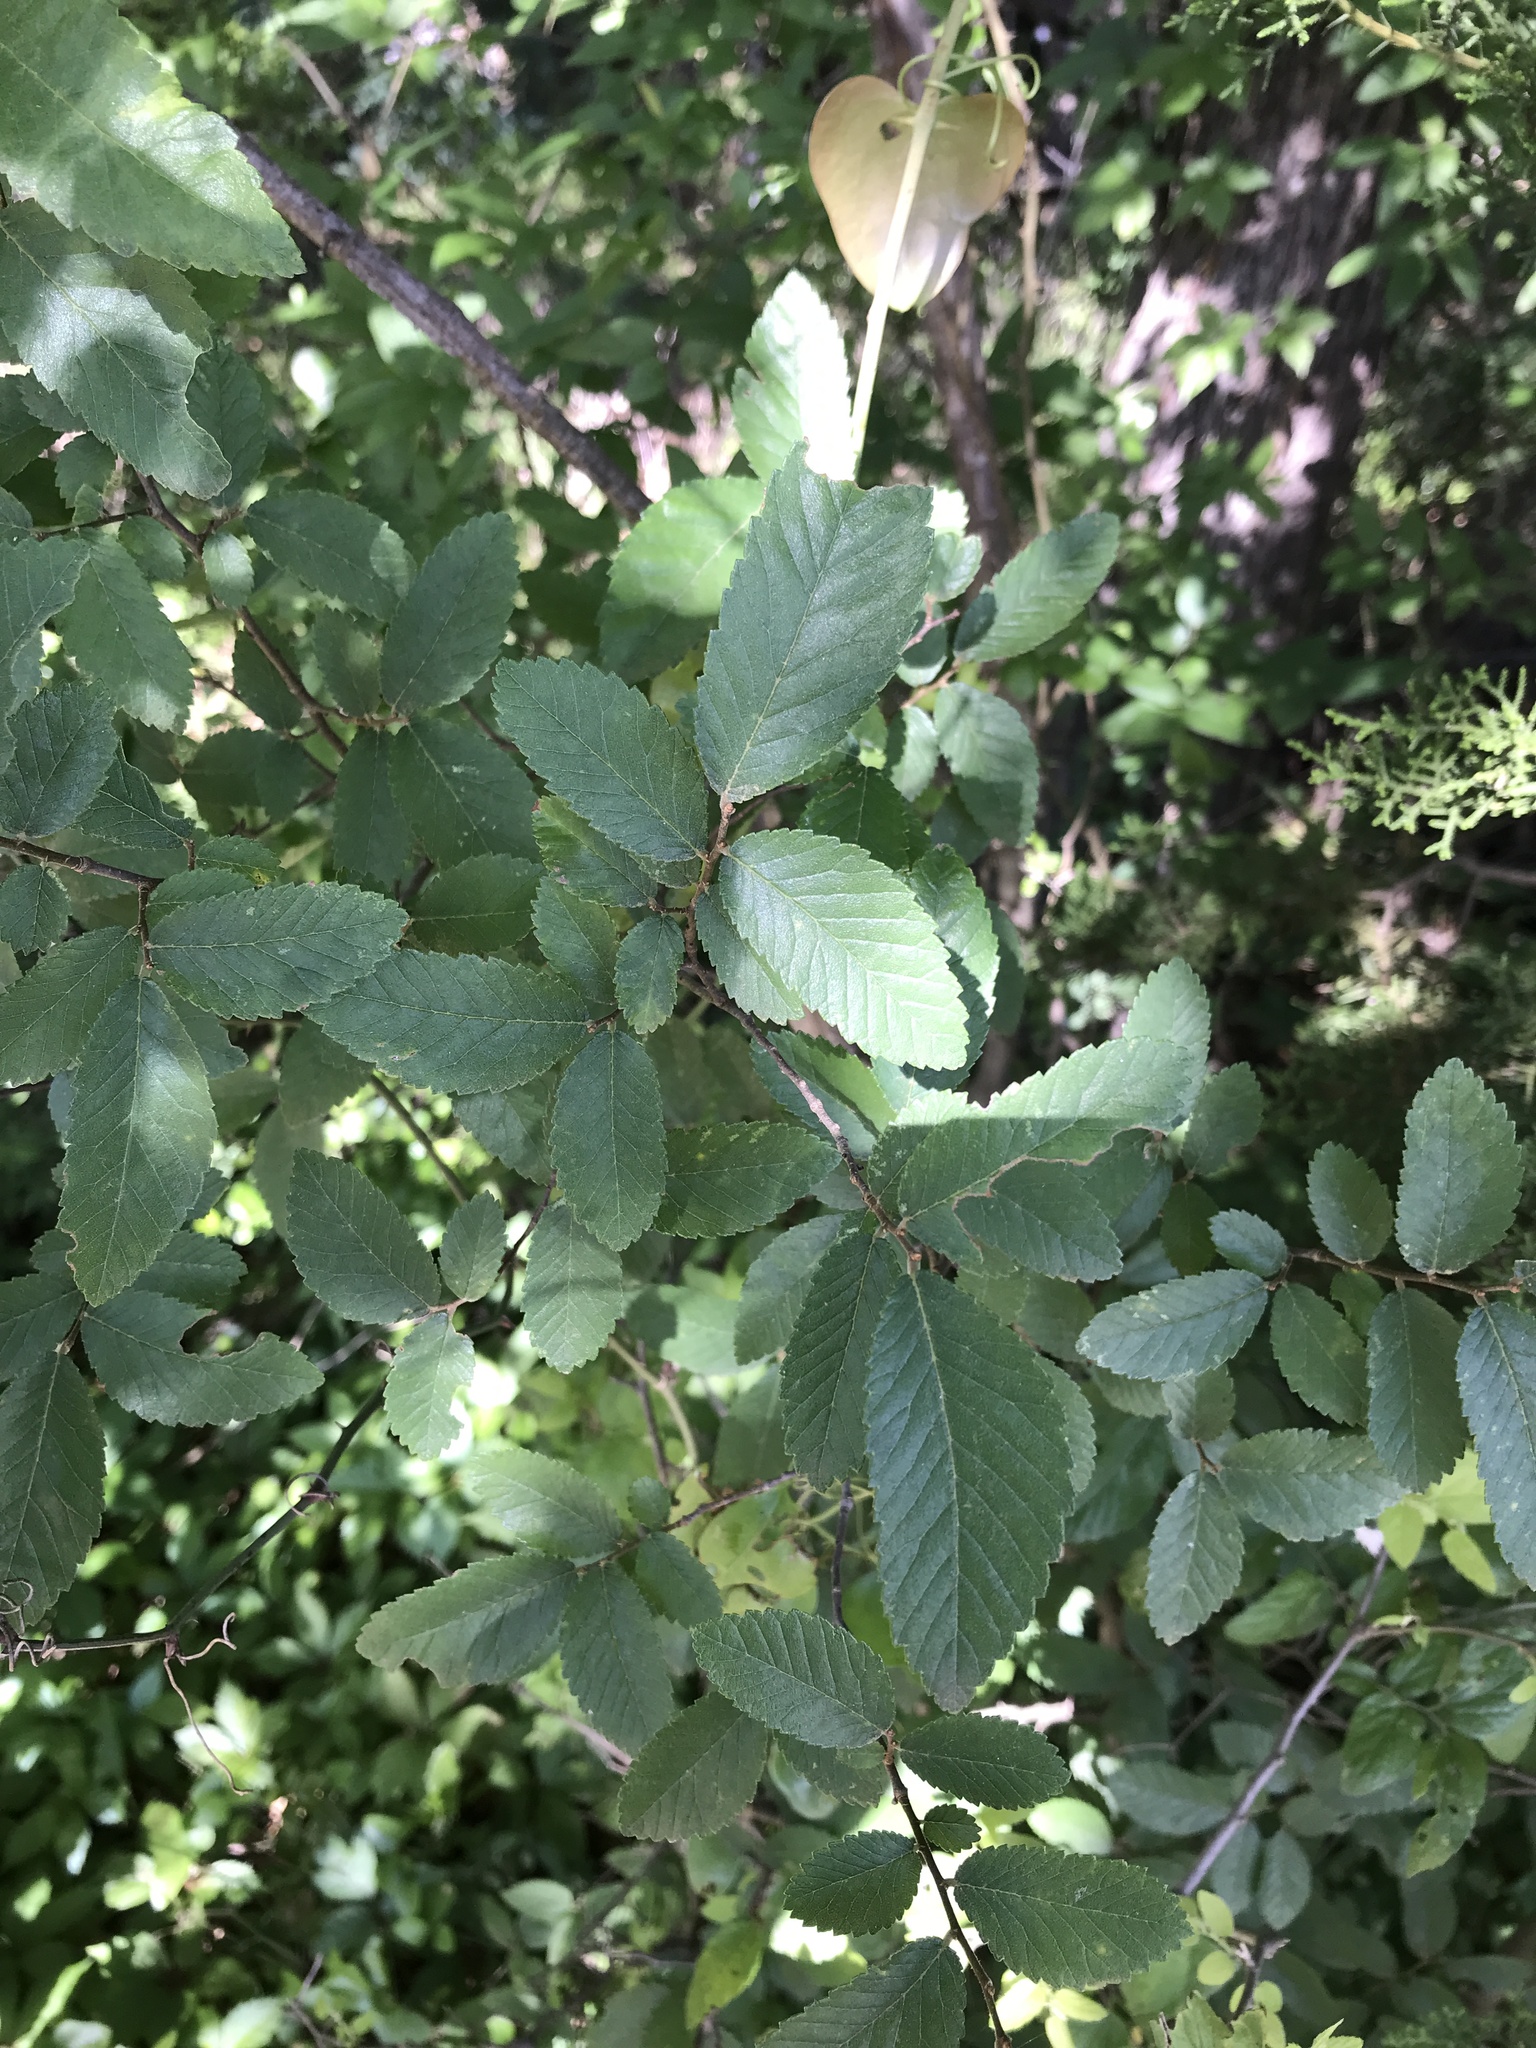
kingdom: Plantae
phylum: Tracheophyta
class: Magnoliopsida
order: Rosales
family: Ulmaceae
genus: Ulmus
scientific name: Ulmus crassifolia
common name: Basket elm
